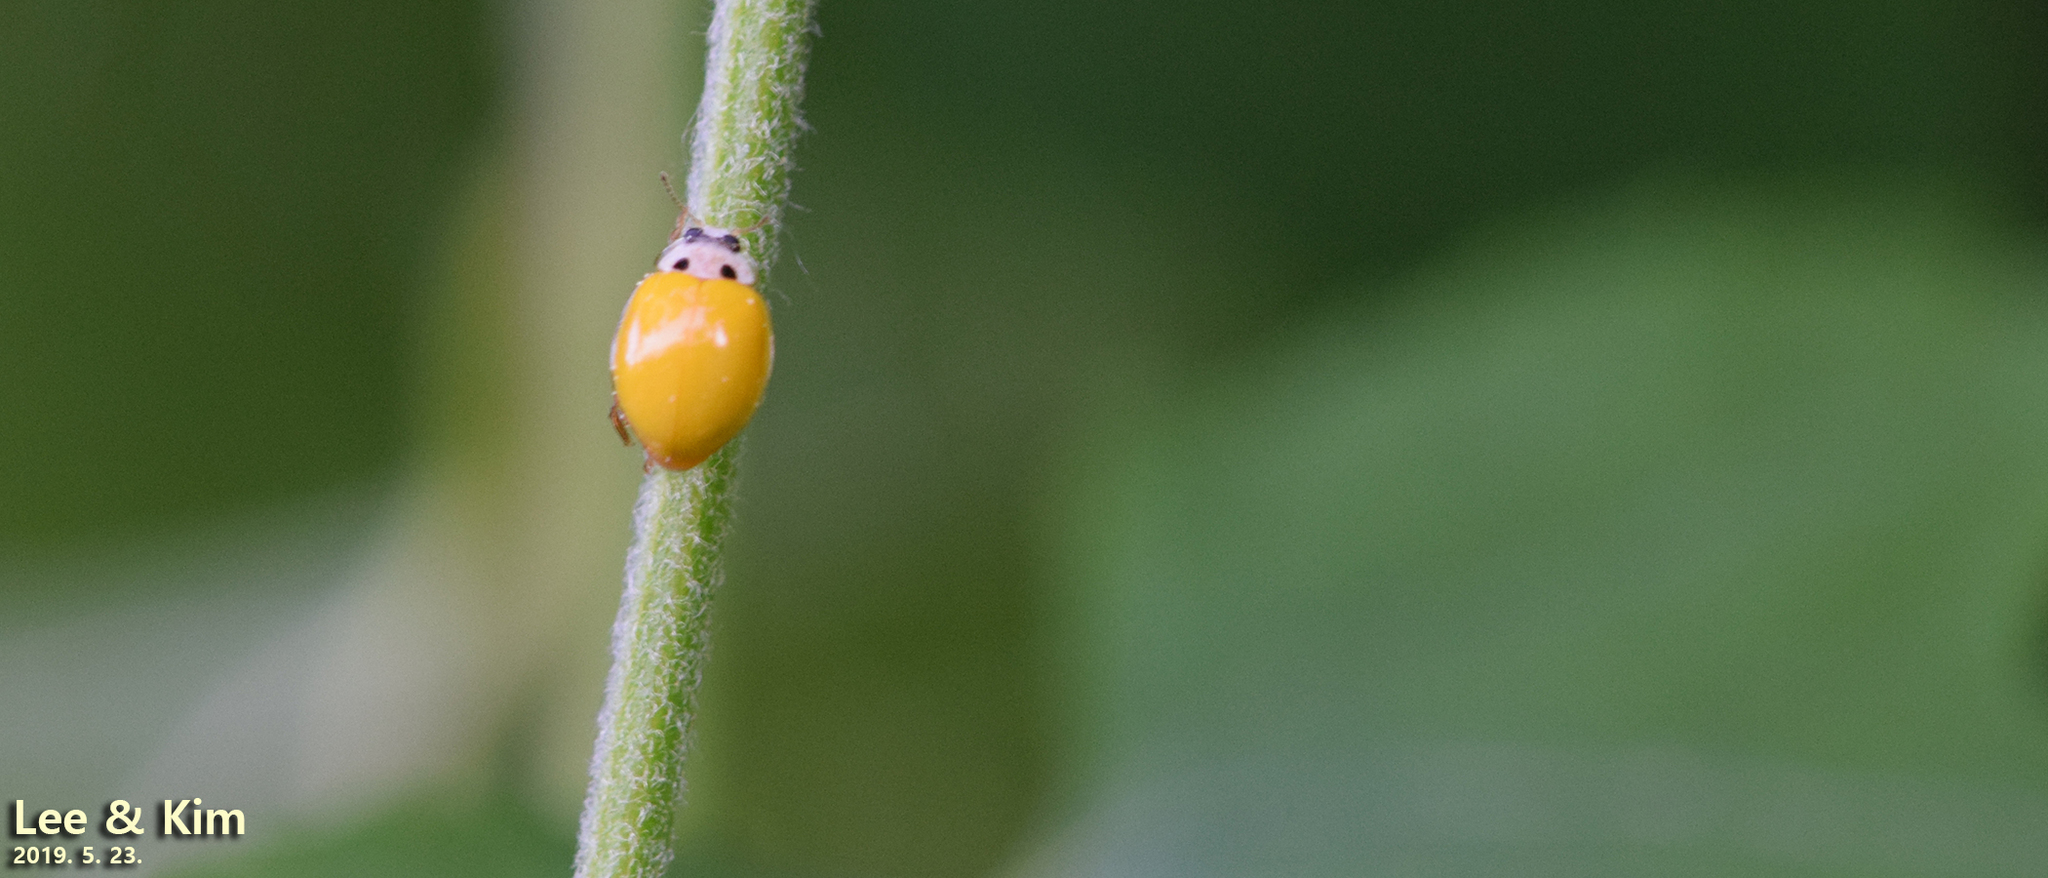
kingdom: Animalia
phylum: Arthropoda
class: Insecta
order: Coleoptera
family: Coccinellidae
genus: Illeis
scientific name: Illeis koebelei
